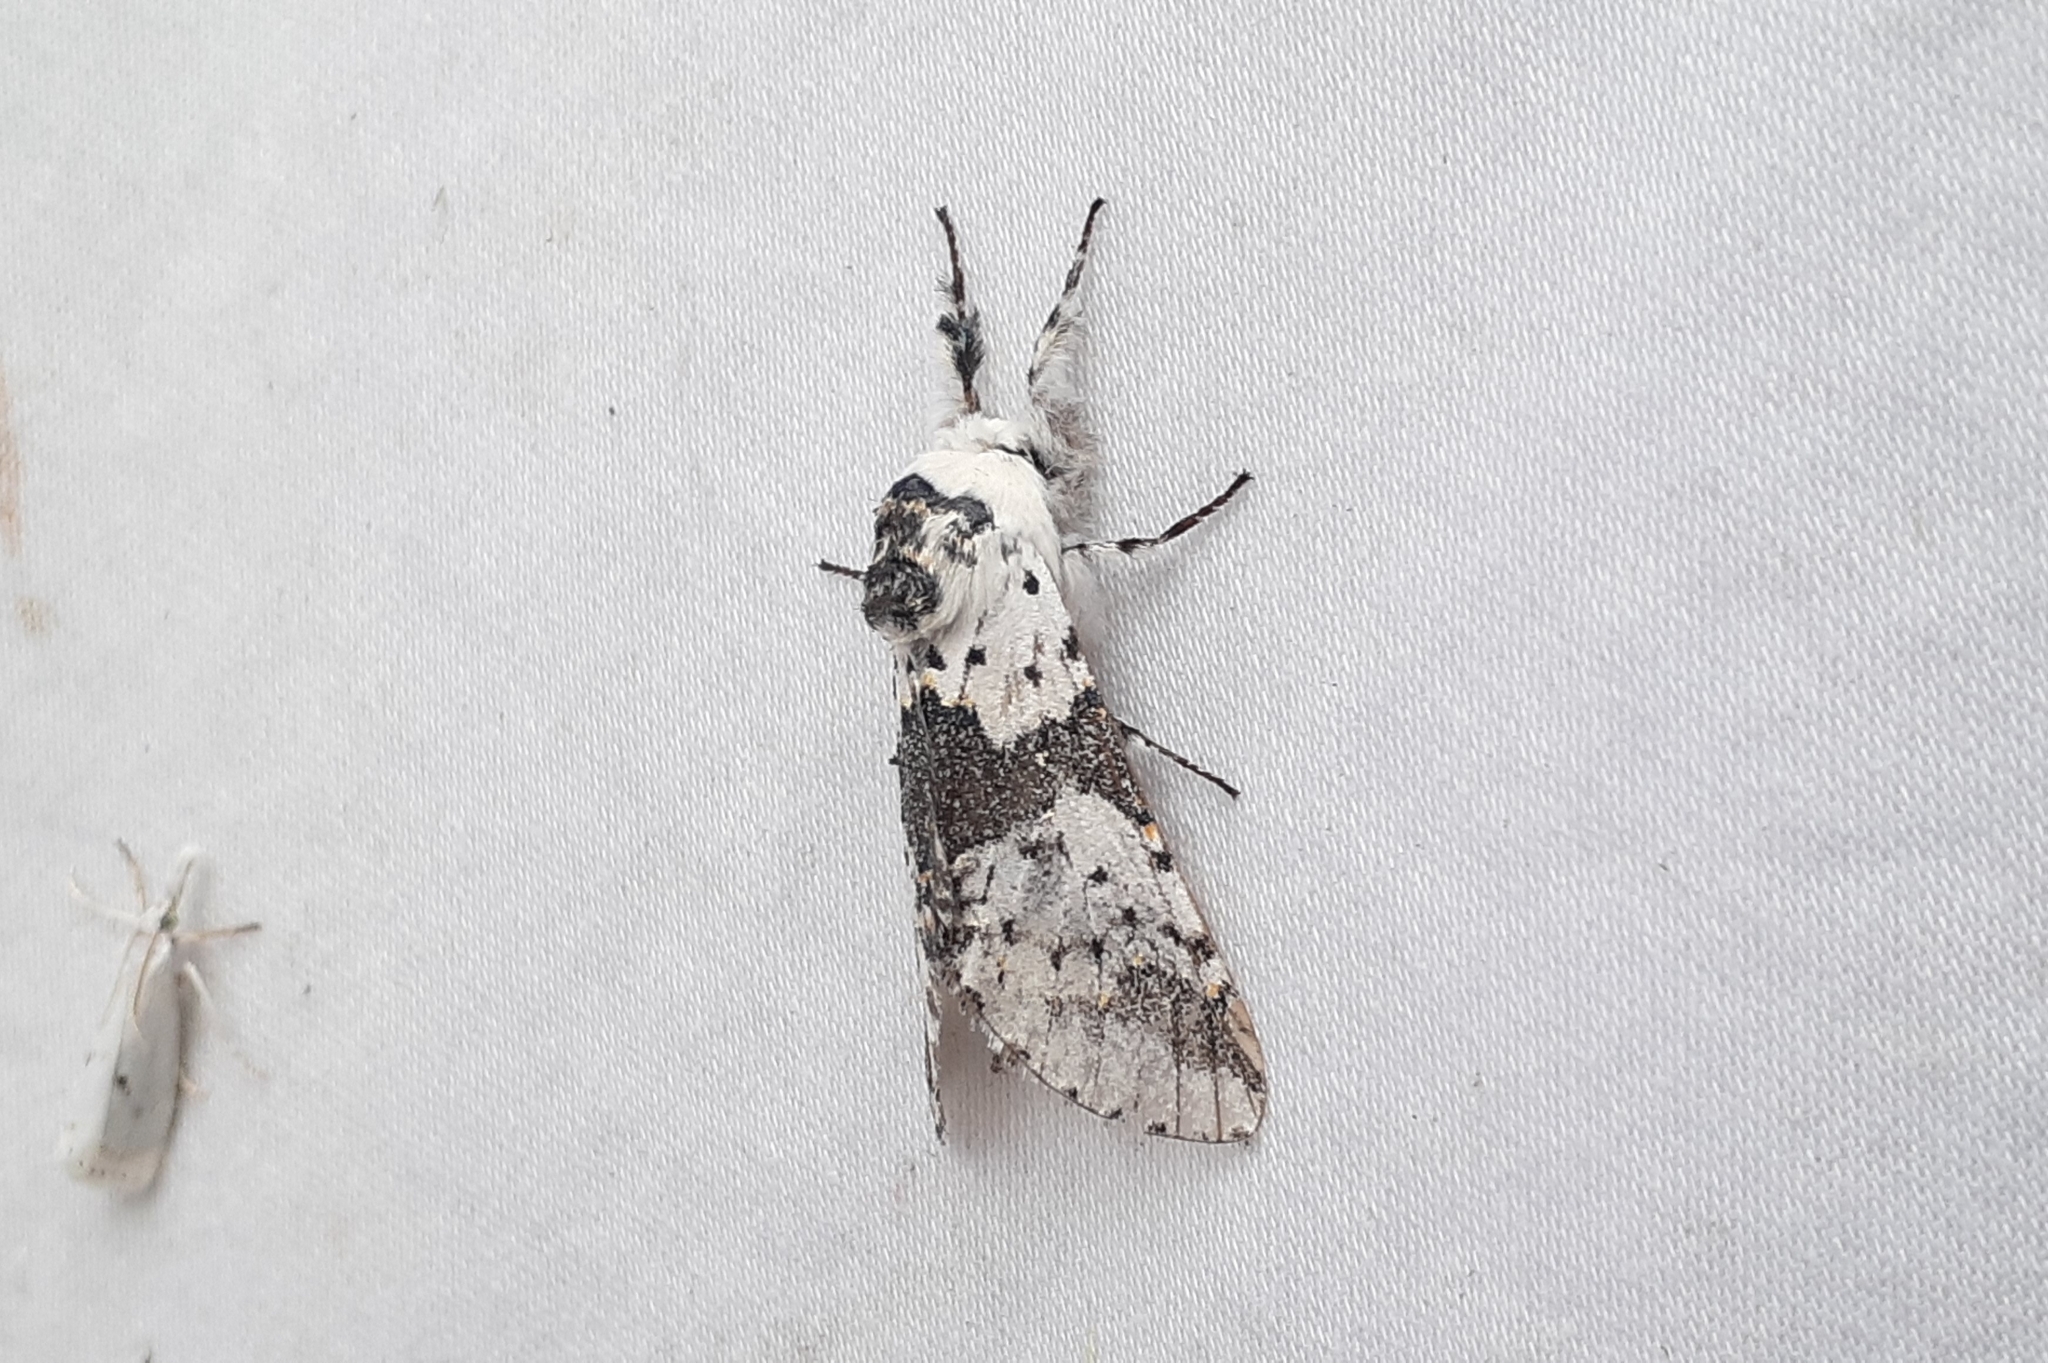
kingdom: Animalia
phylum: Arthropoda
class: Insecta
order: Lepidoptera
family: Notodontidae
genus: Furcula
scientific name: Furcula borealis
